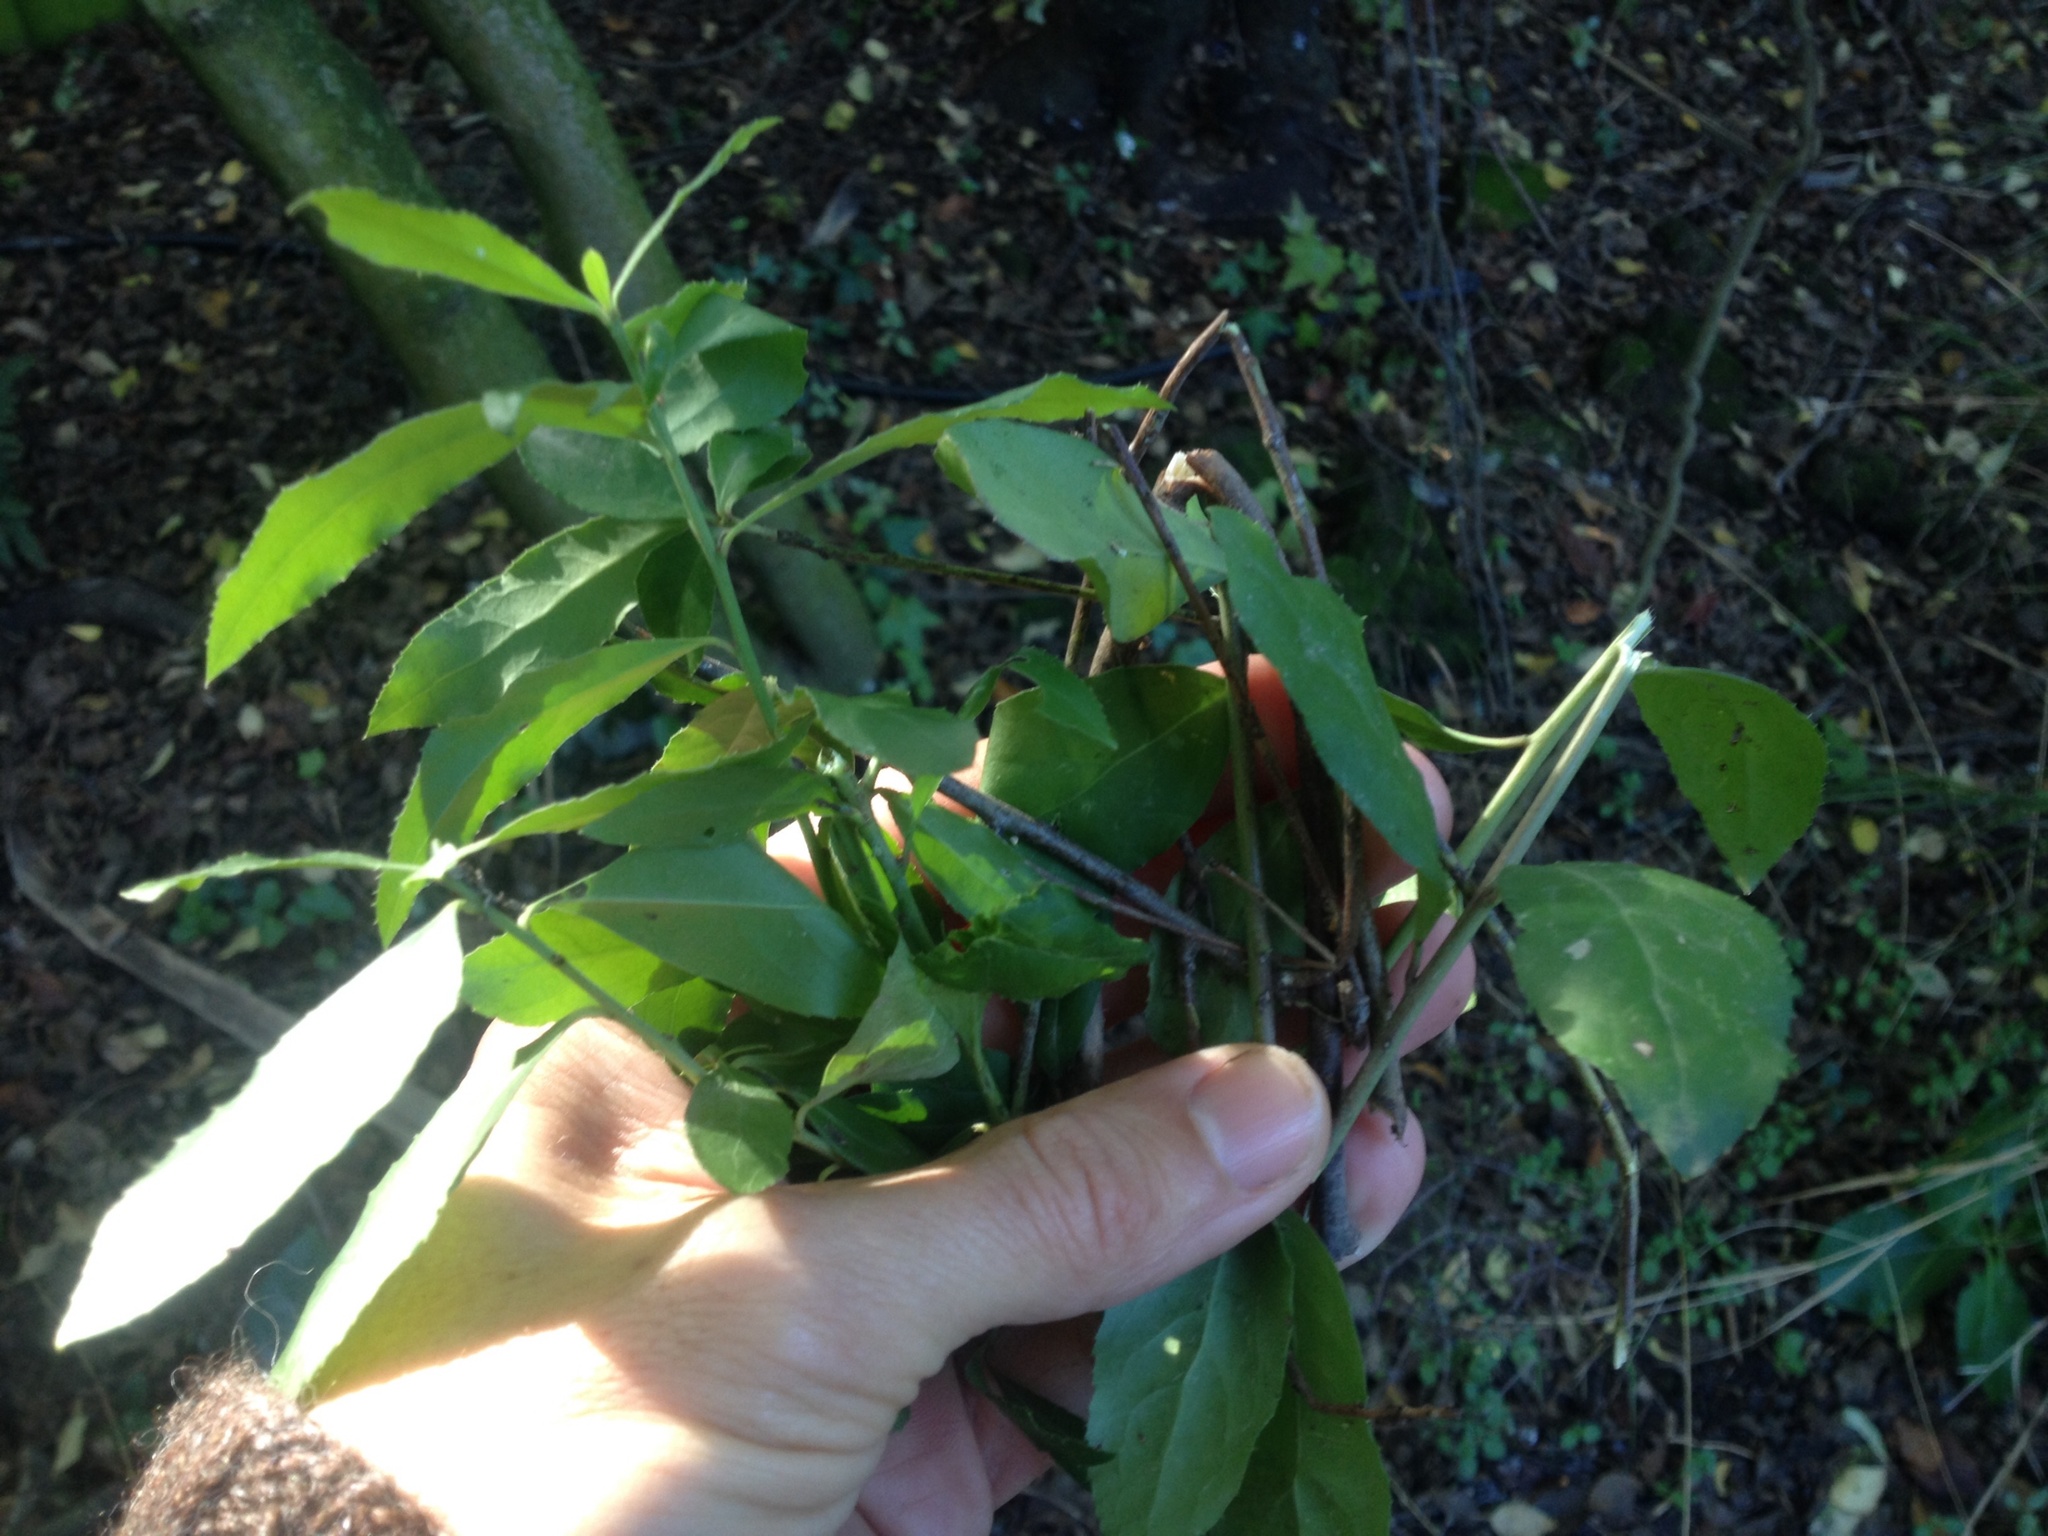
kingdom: Plantae
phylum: Tracheophyta
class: Magnoliopsida
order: Celastrales
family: Celastraceae
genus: Maytenus
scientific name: Maytenus boaria
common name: Mayten
